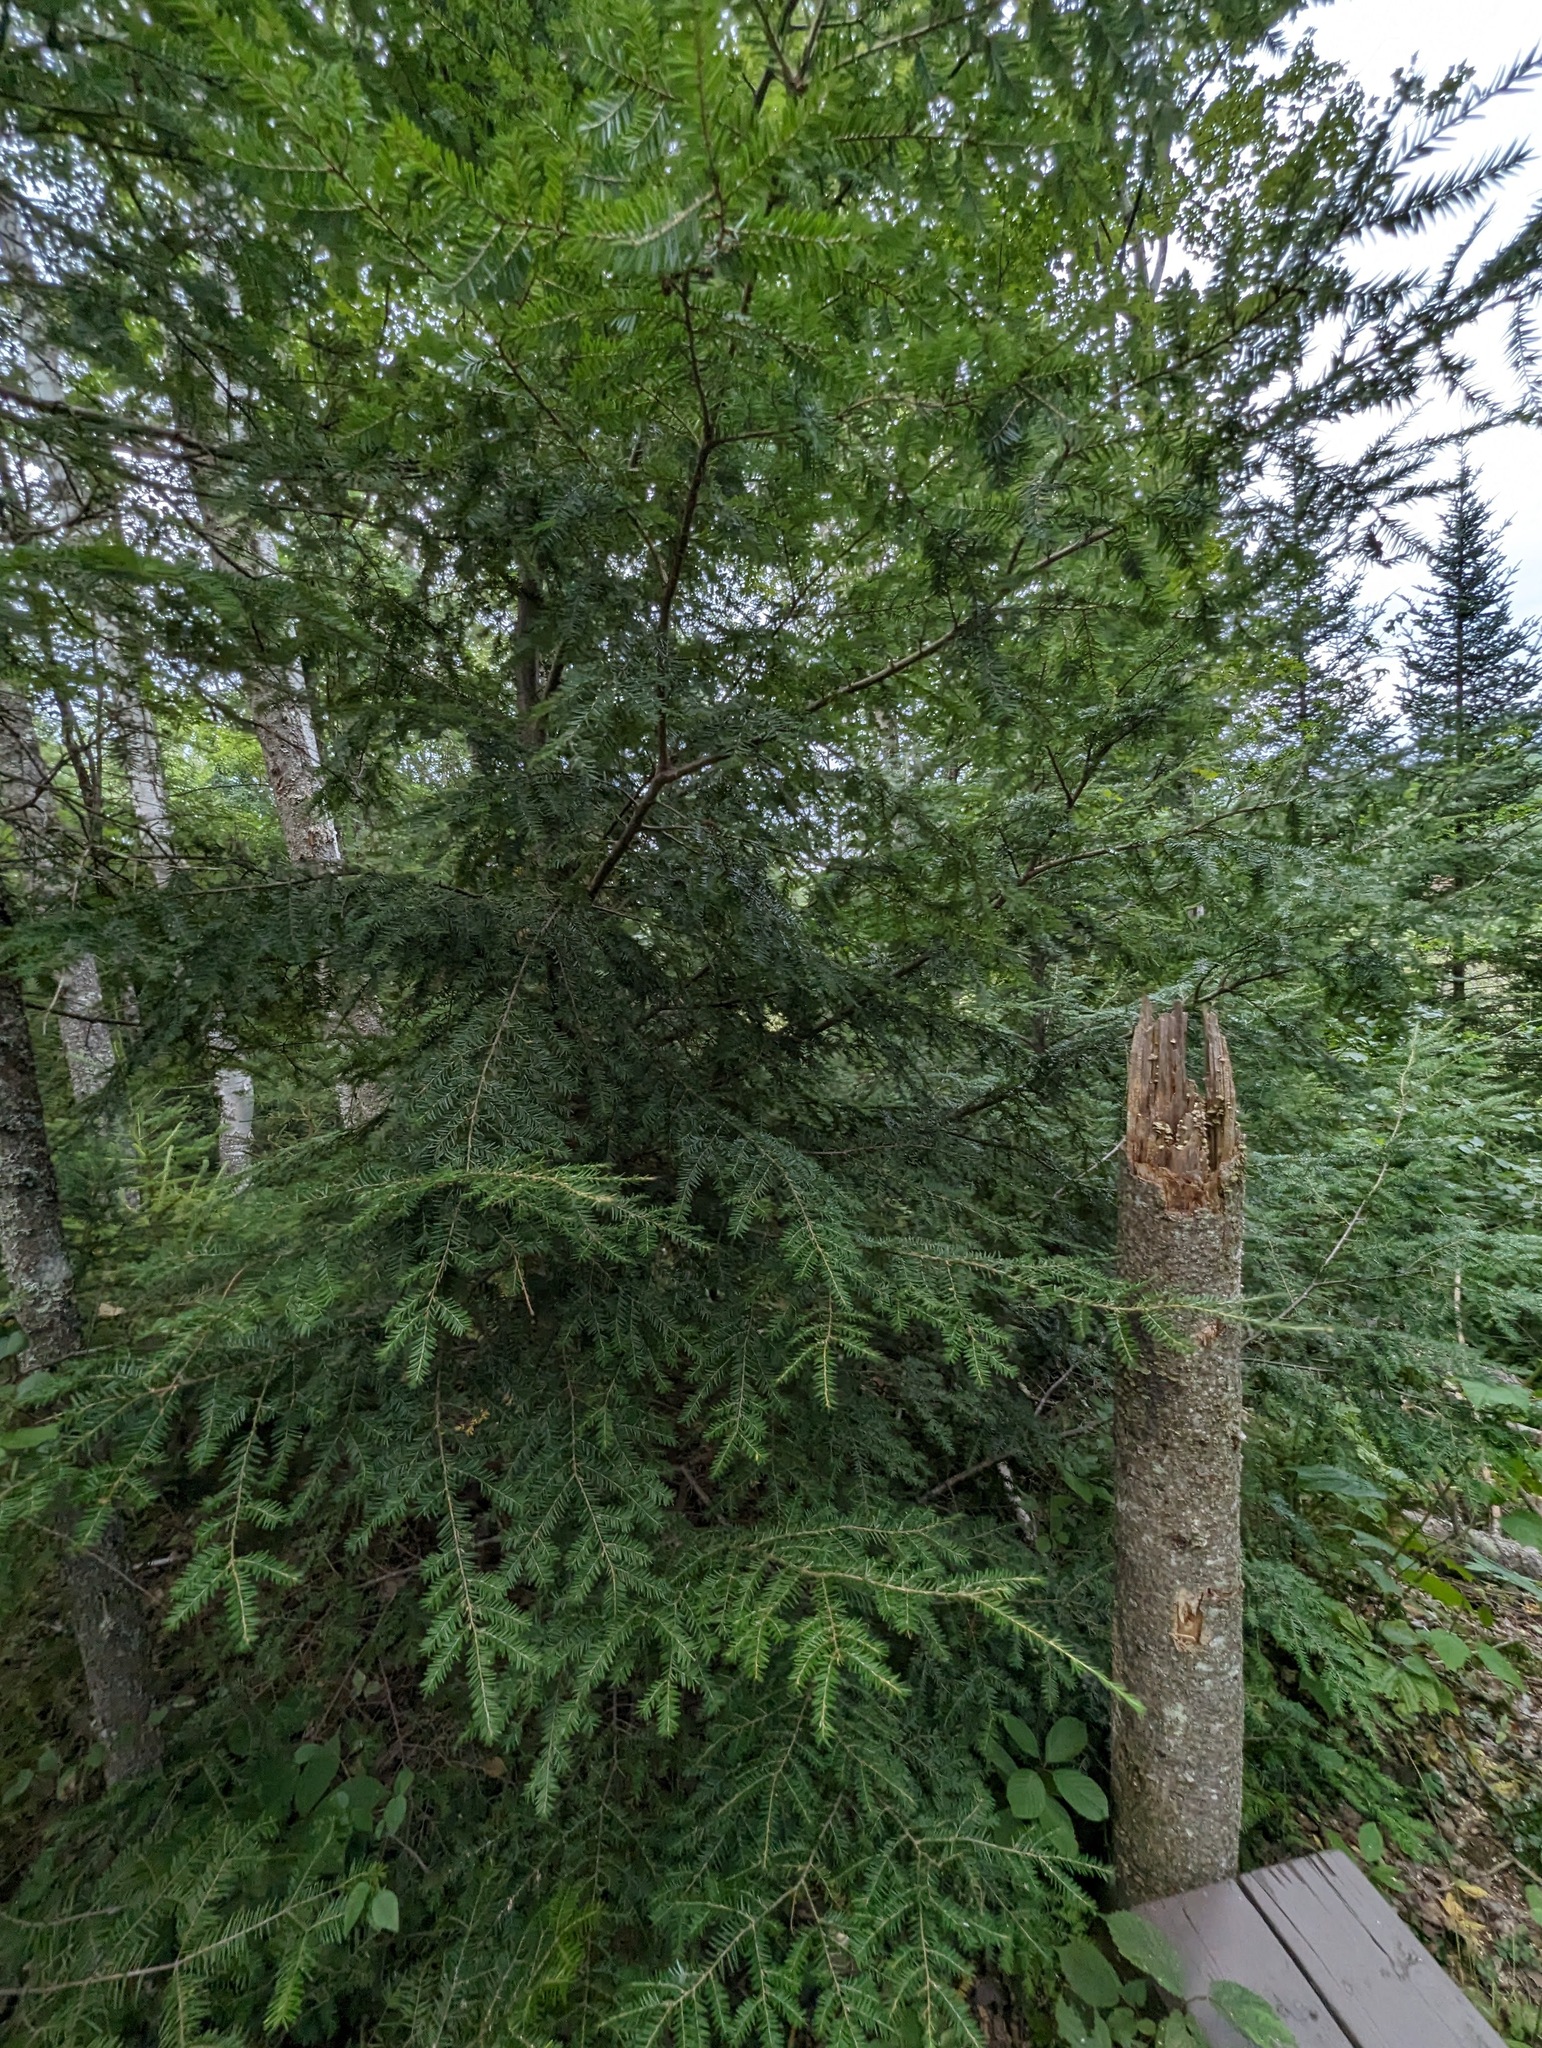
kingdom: Plantae
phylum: Tracheophyta
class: Pinopsida
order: Pinales
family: Pinaceae
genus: Tsuga
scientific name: Tsuga canadensis
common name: Eastern hemlock
